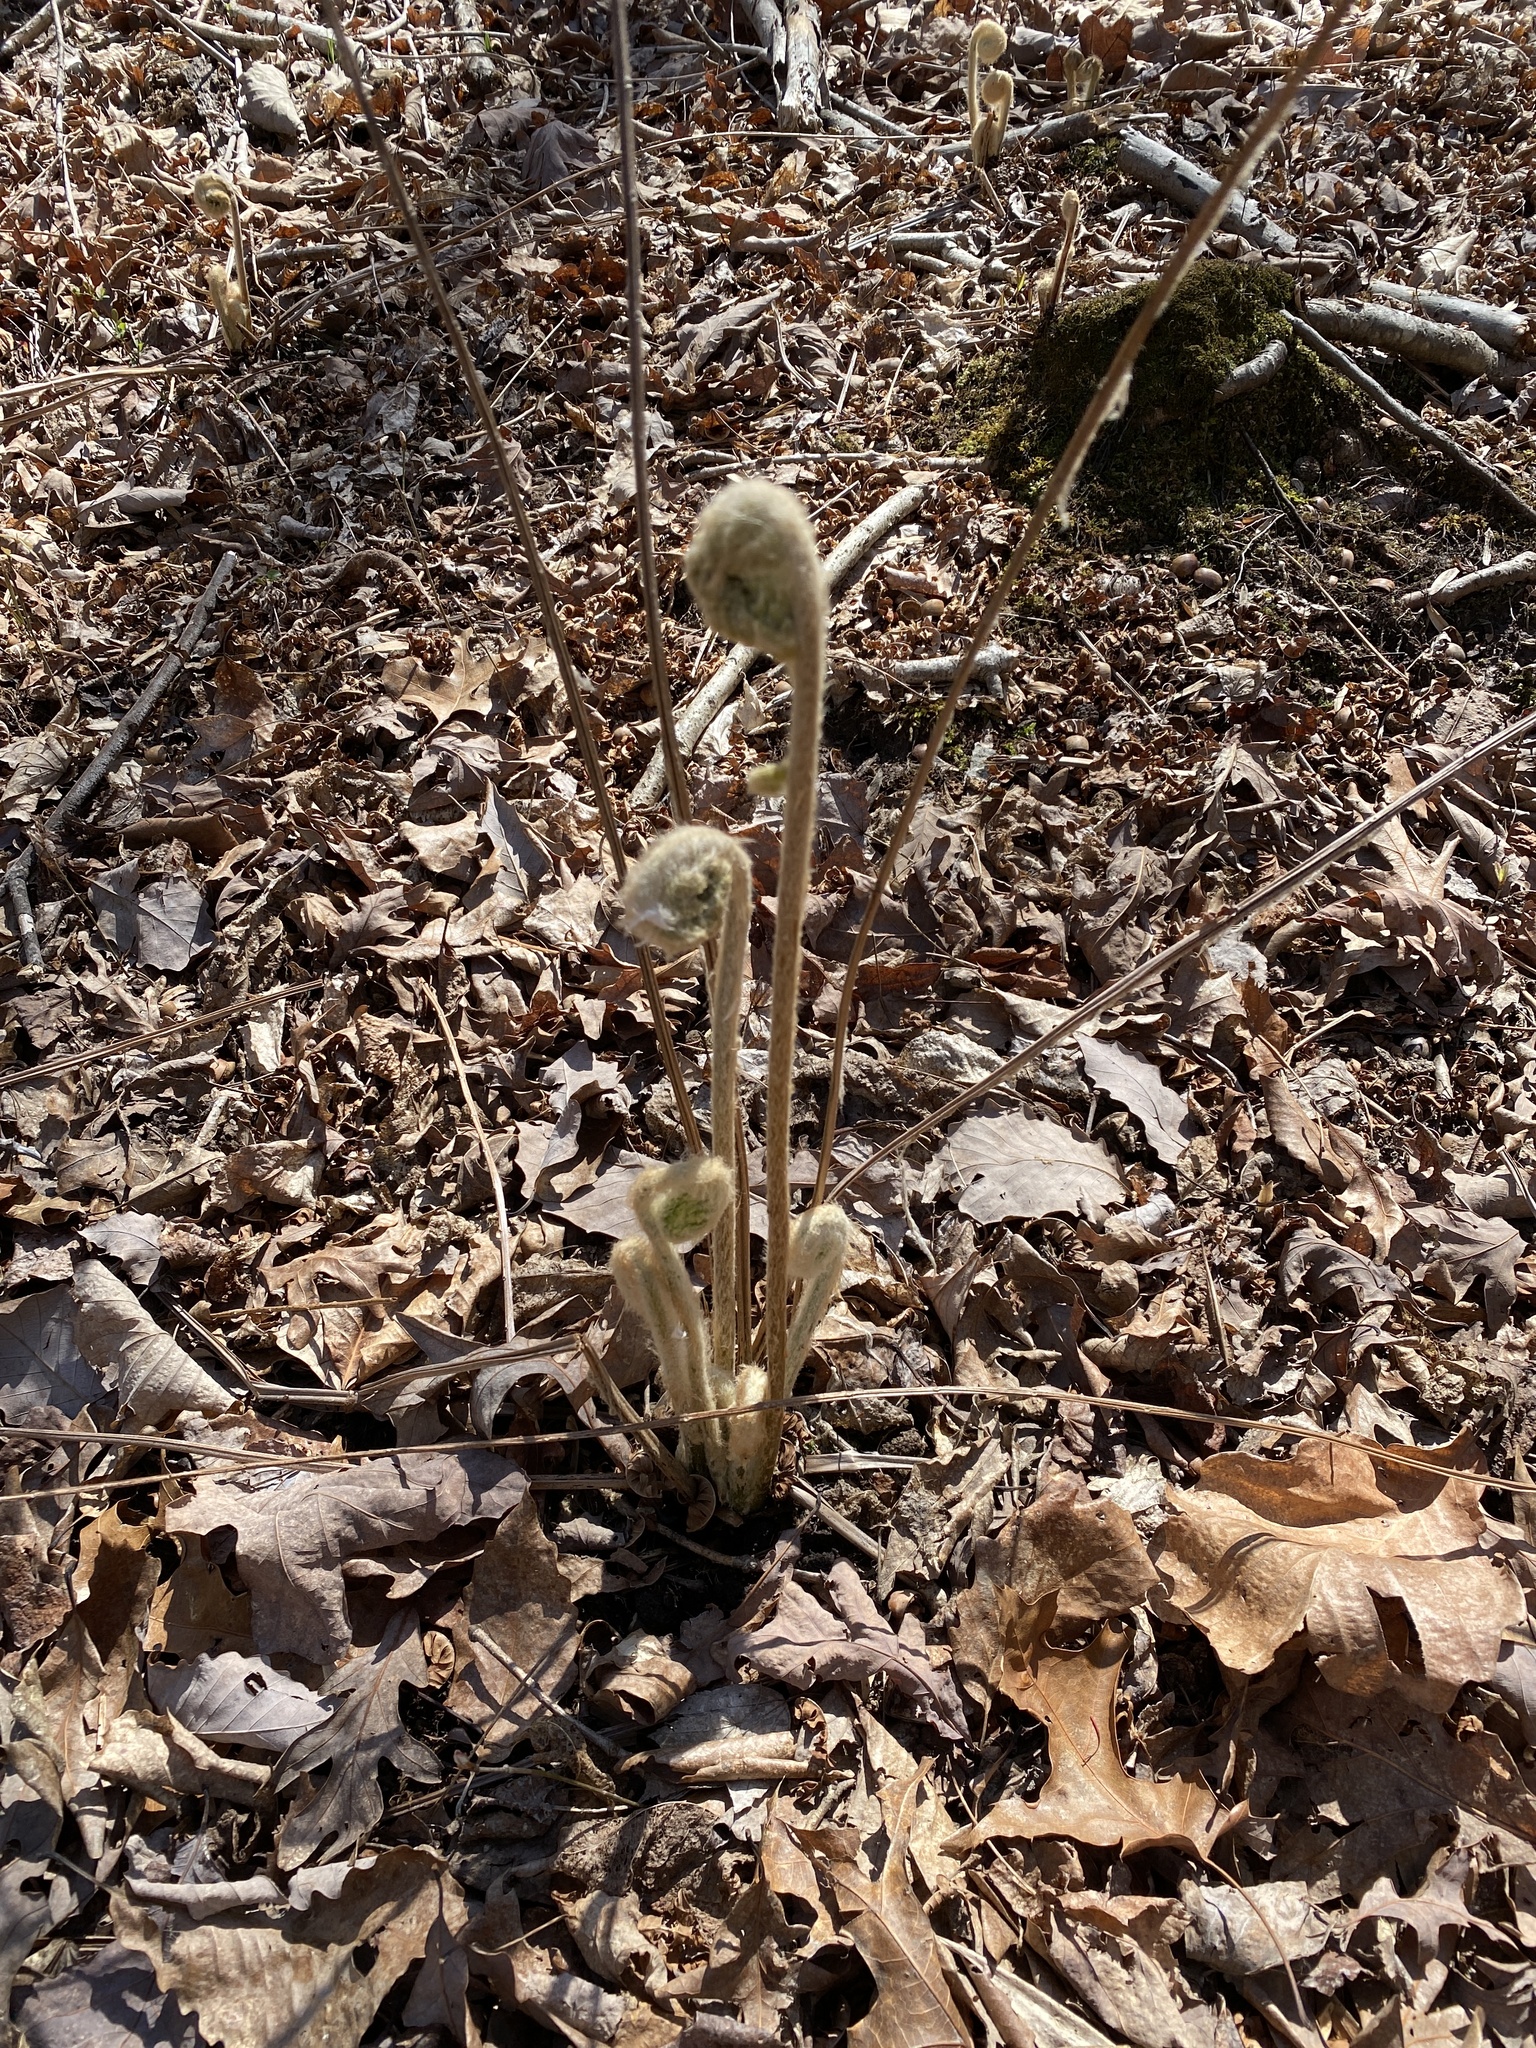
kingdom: Plantae
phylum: Tracheophyta
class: Polypodiopsida
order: Osmundales
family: Osmundaceae
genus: Osmundastrum
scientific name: Osmundastrum cinnamomeum
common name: Cinnamon fern
